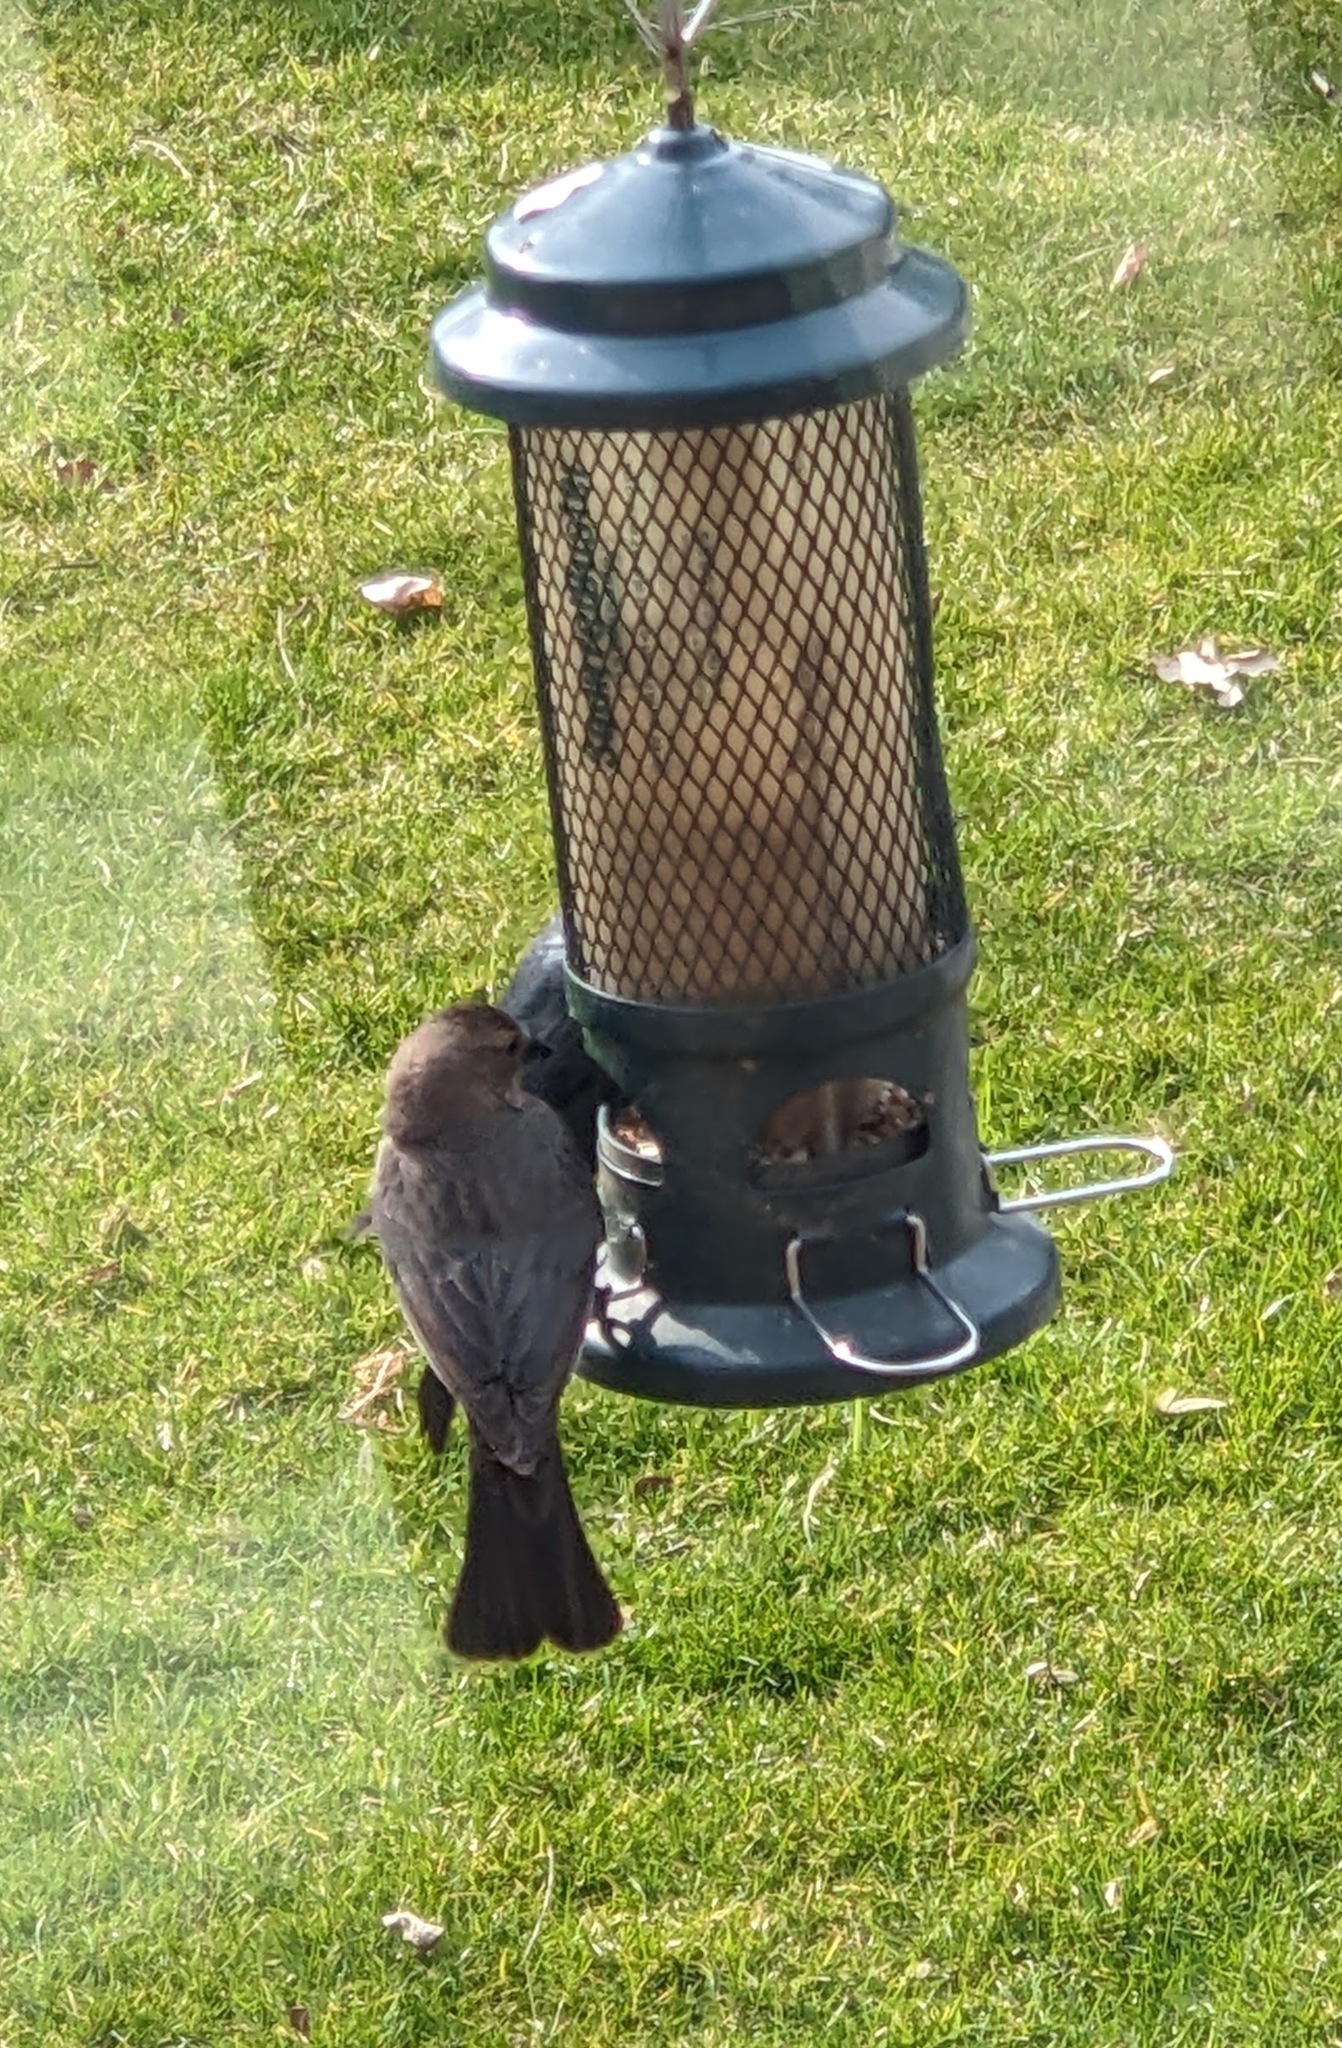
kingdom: Animalia
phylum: Chordata
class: Aves
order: Passeriformes
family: Icteridae
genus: Molothrus
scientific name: Molothrus ater
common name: Brown-headed cowbird
